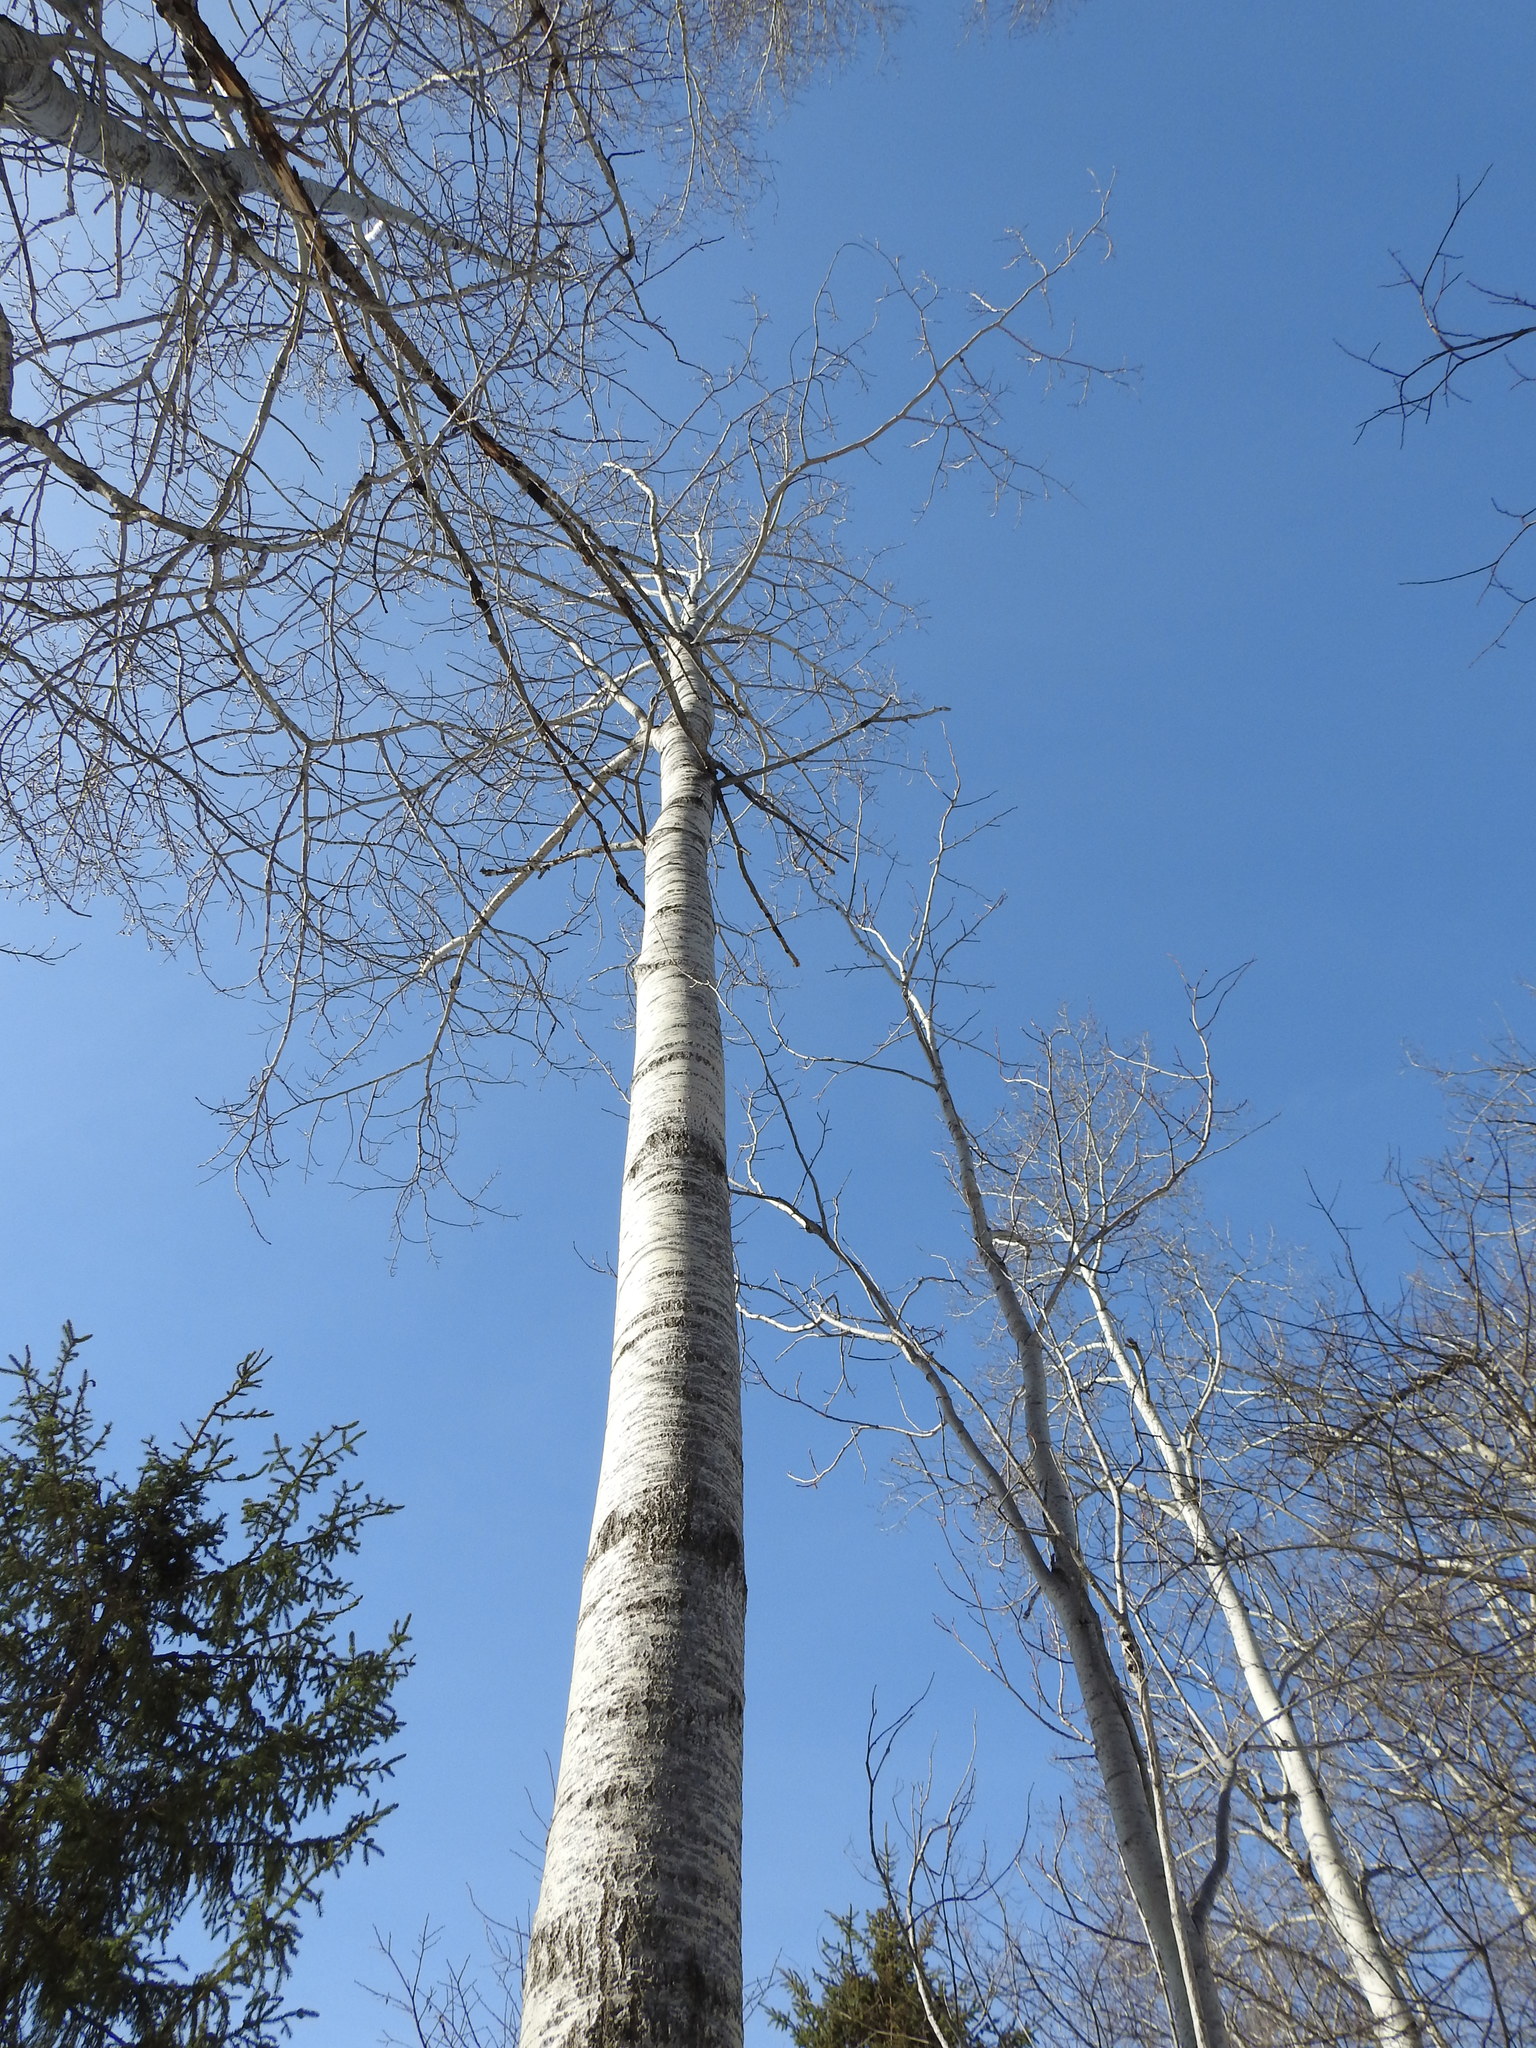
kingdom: Plantae
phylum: Tracheophyta
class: Magnoliopsida
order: Malpighiales
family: Salicaceae
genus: Populus
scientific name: Populus tremuloides
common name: Quaking aspen
